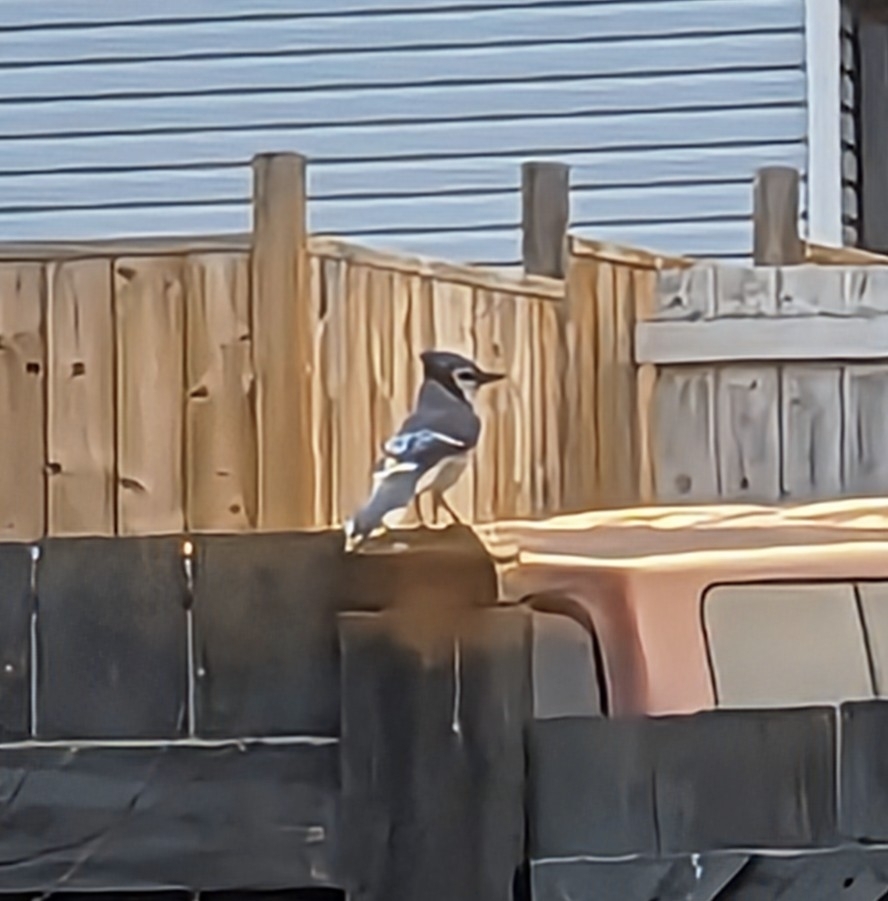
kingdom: Animalia
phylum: Chordata
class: Aves
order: Passeriformes
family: Corvidae
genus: Cyanocitta
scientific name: Cyanocitta cristata
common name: Blue jay
